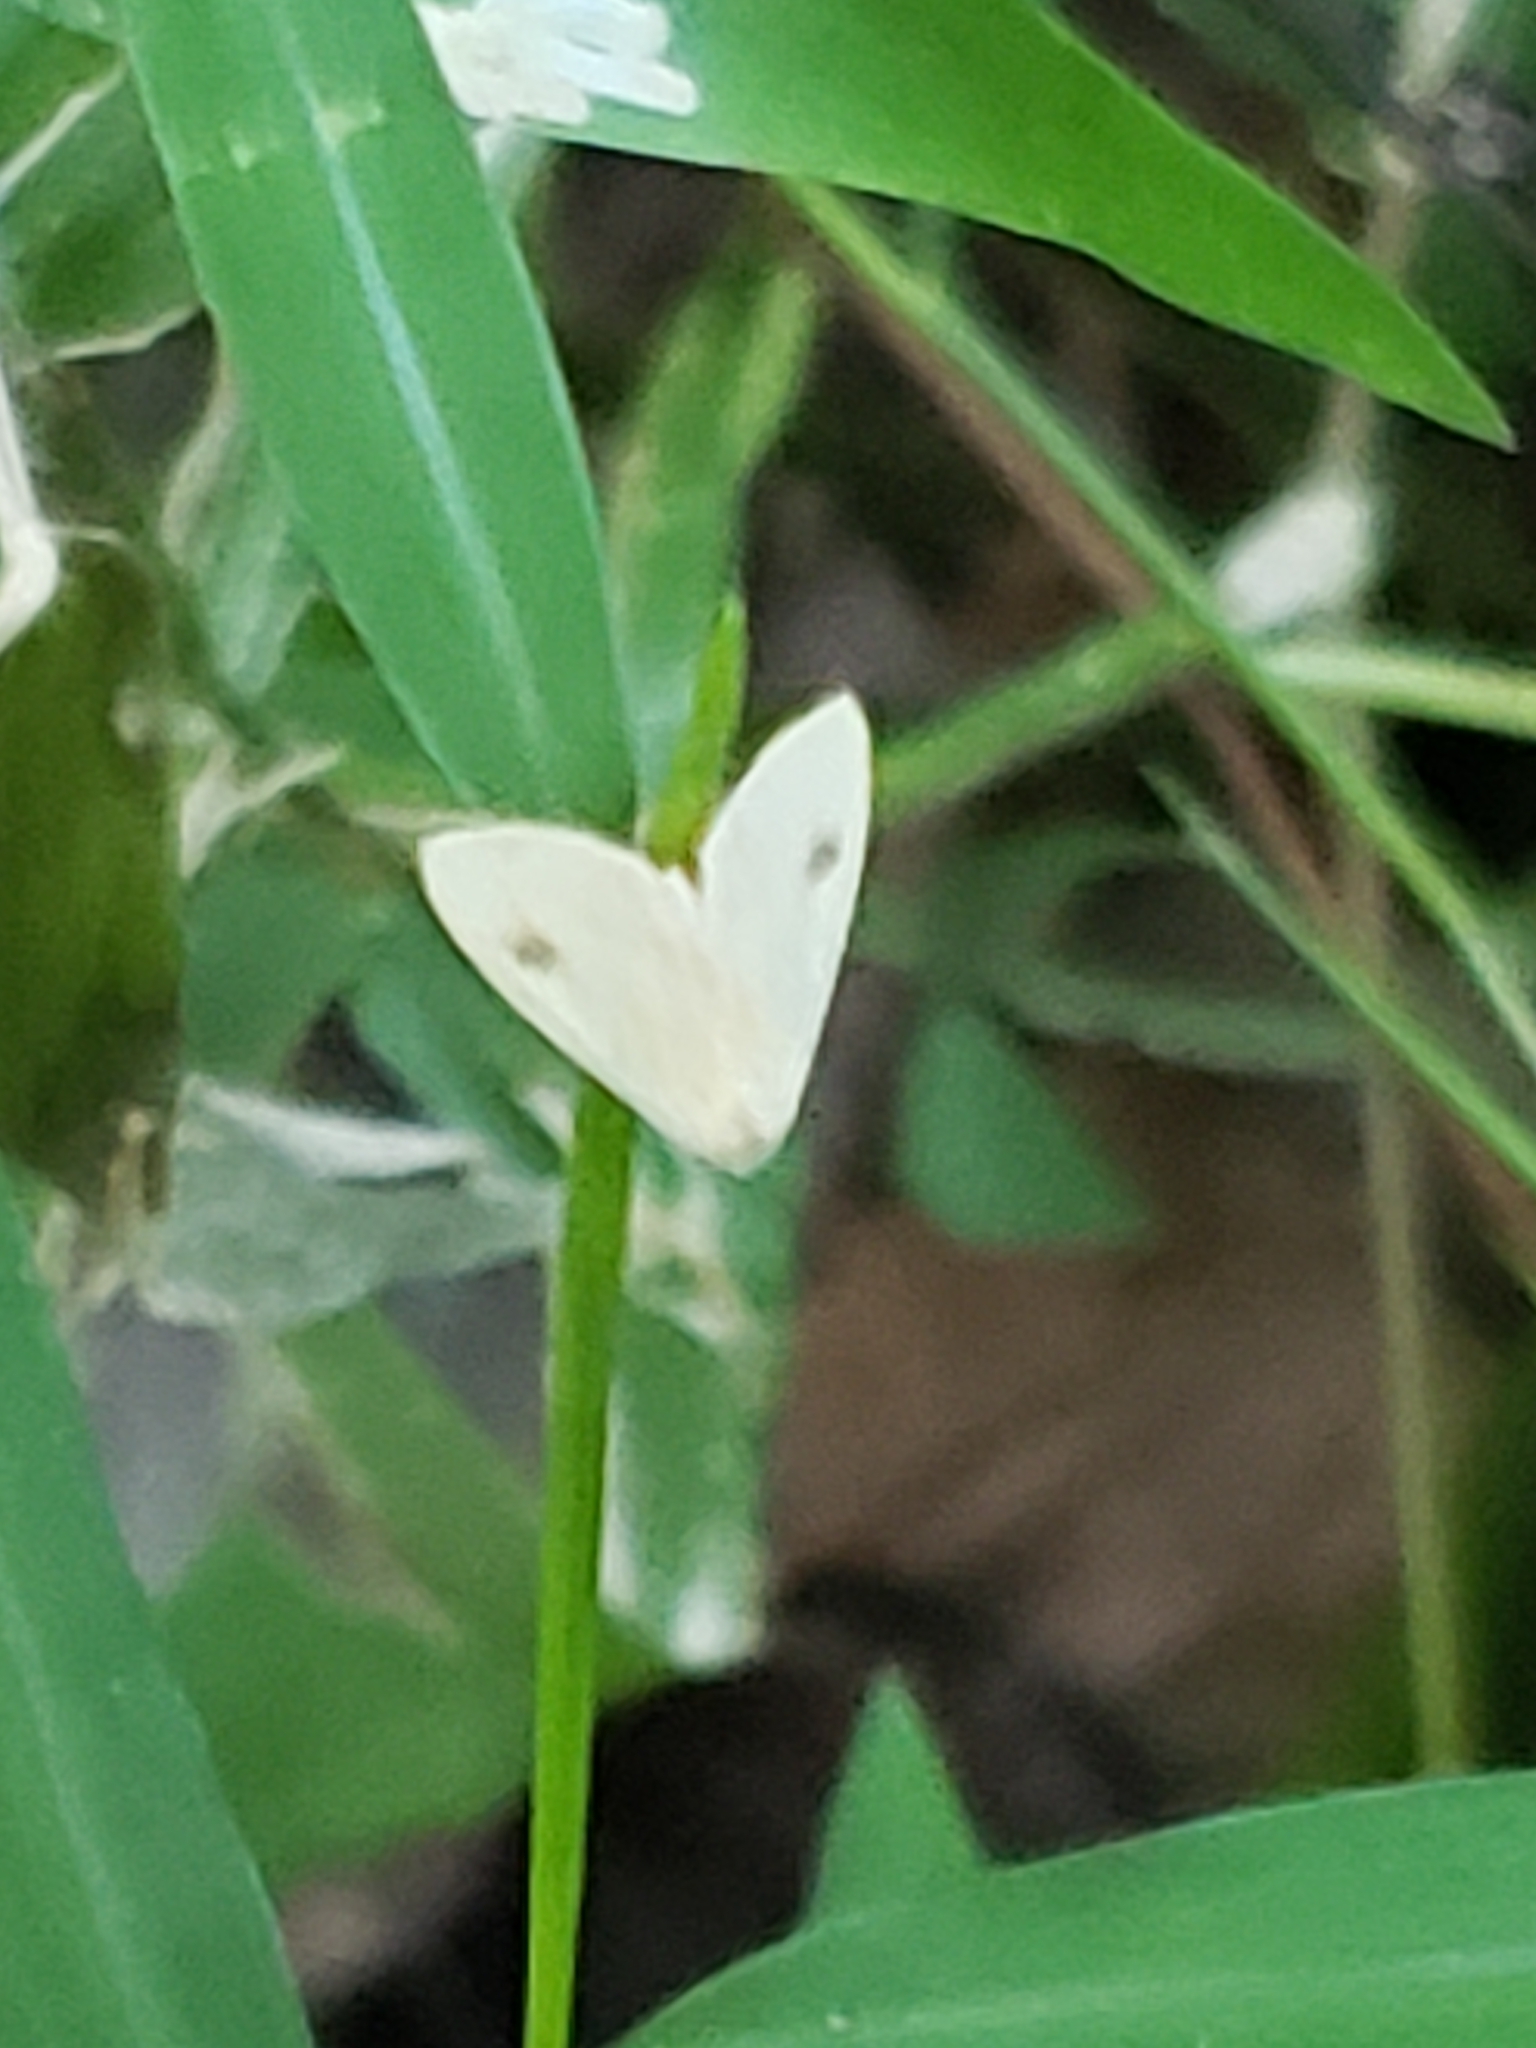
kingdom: Animalia
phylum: Arthropoda
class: Insecta
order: Lepidoptera
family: Erebidae
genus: Rivula
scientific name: Rivula propinqualis
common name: Spotted grass moth
